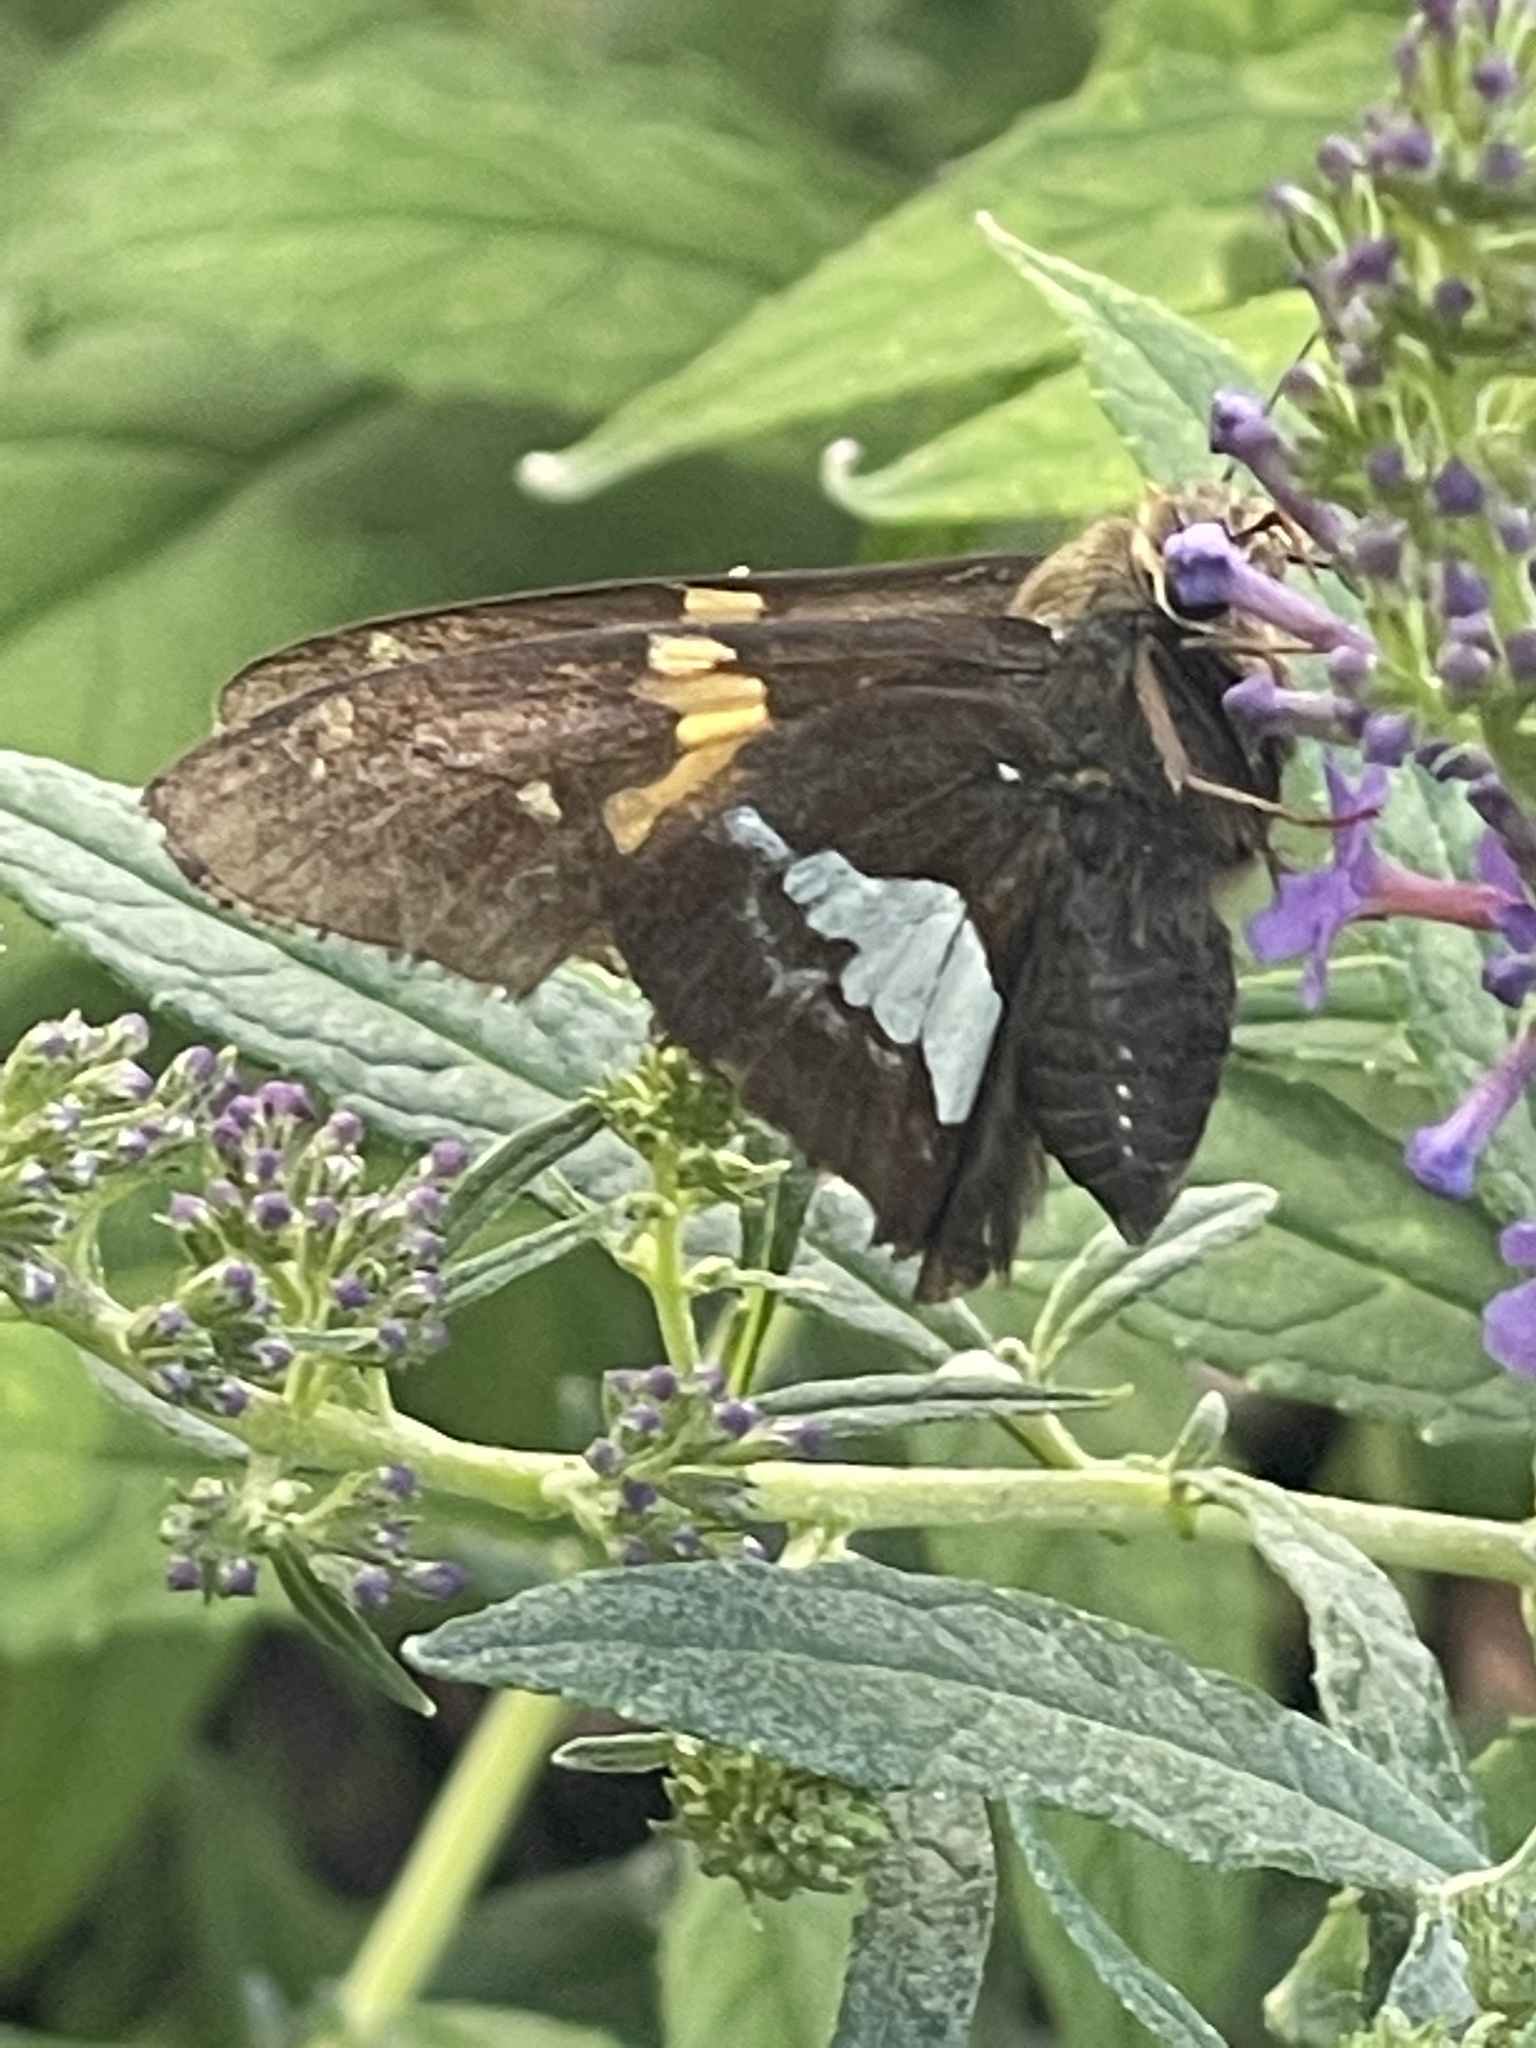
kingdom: Animalia
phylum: Arthropoda
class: Insecta
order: Lepidoptera
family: Hesperiidae
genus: Epargyreus
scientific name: Epargyreus clarus
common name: Silver-spotted skipper
